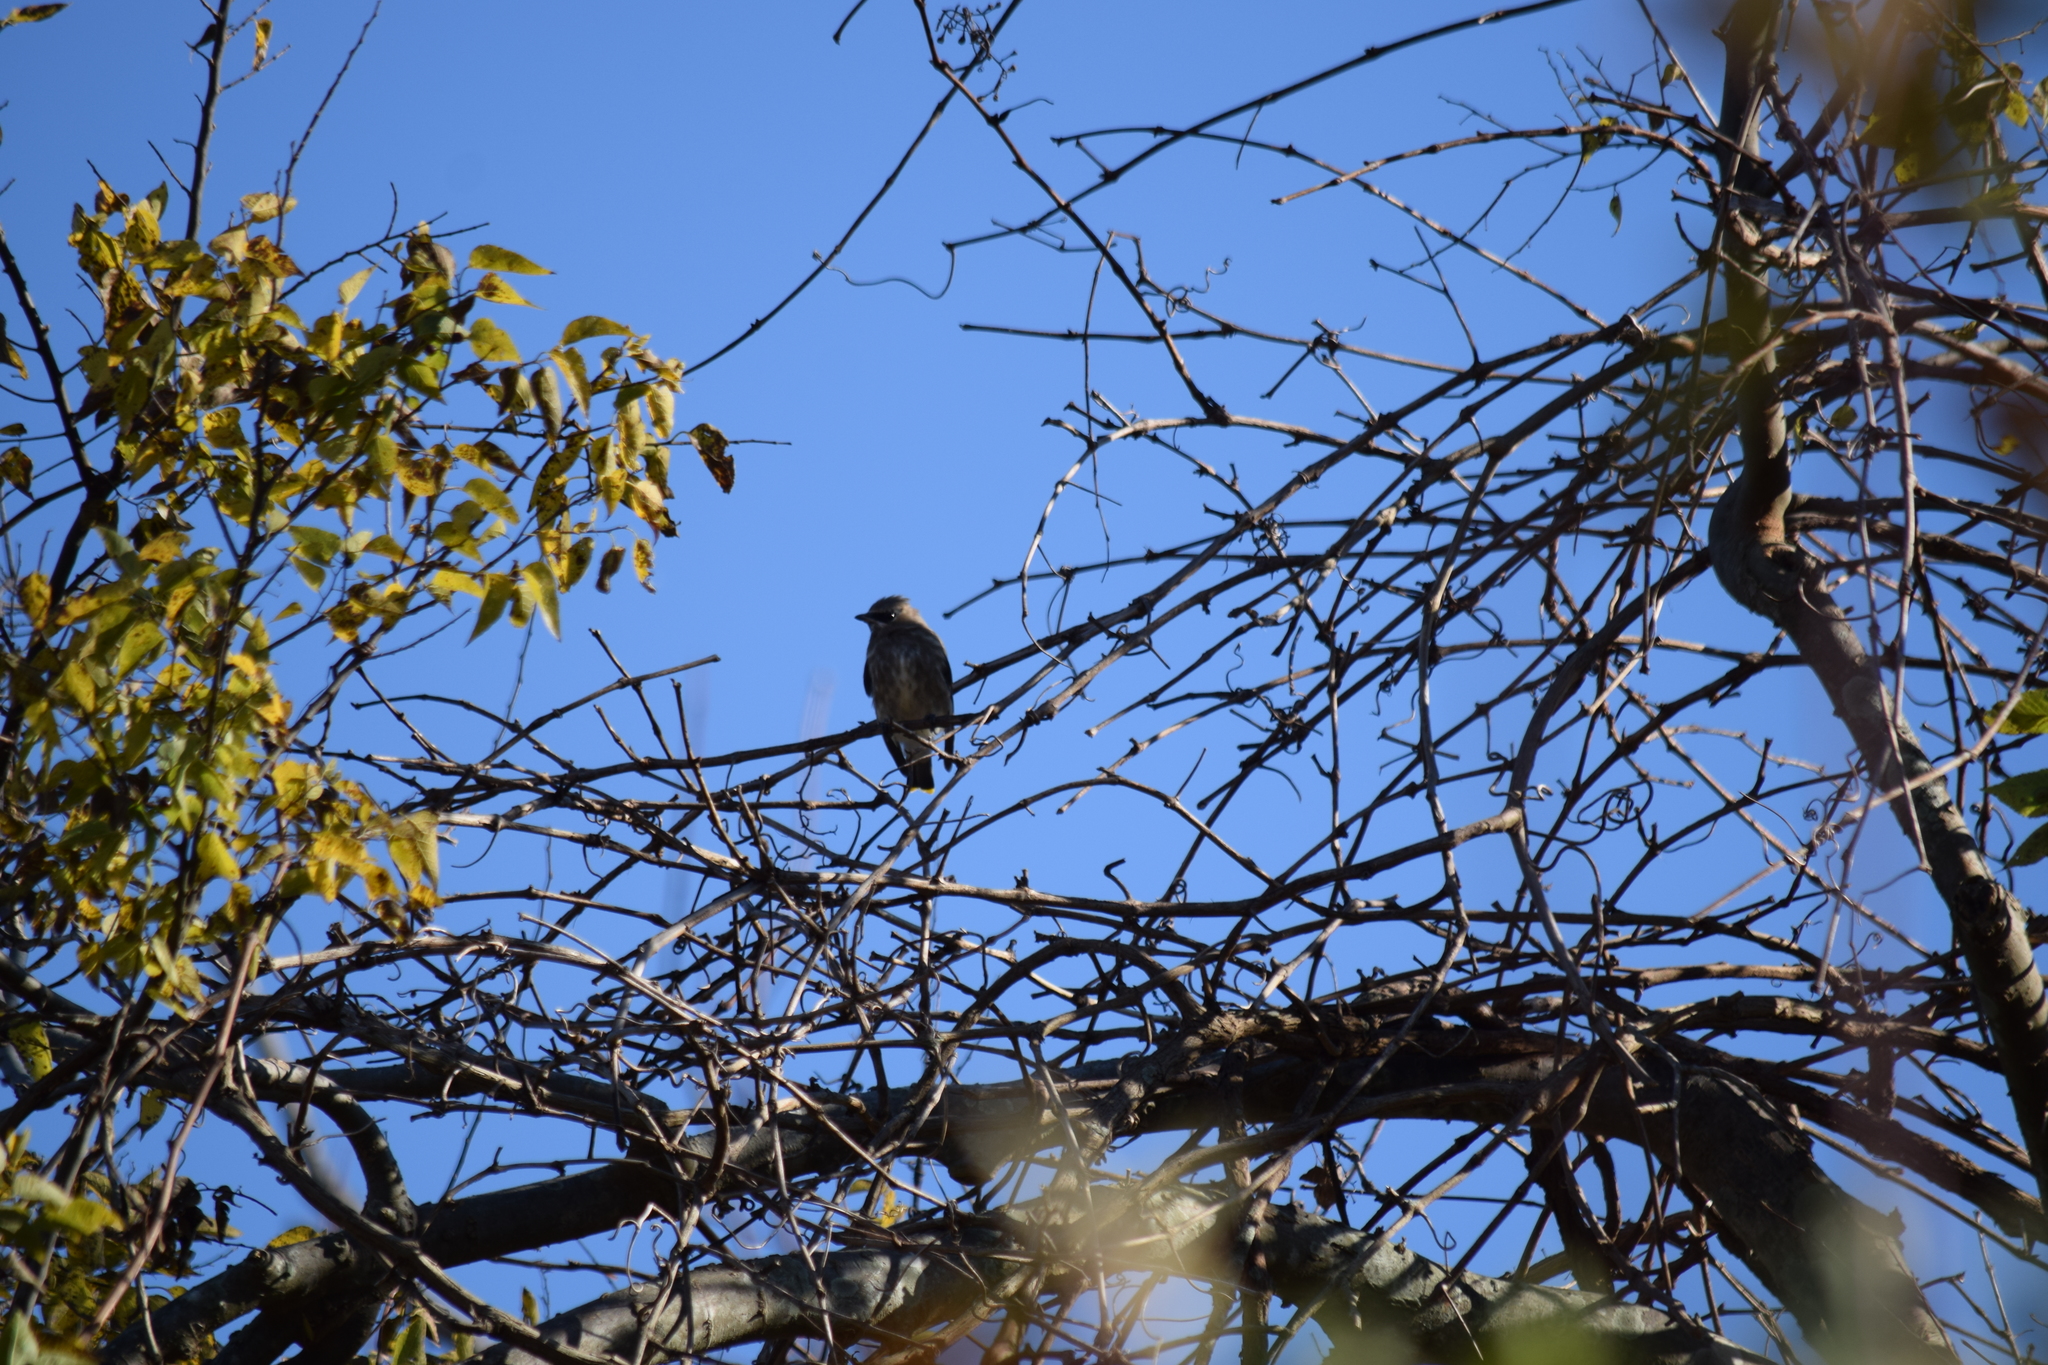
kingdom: Animalia
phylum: Chordata
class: Aves
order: Passeriformes
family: Bombycillidae
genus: Bombycilla
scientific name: Bombycilla cedrorum
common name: Cedar waxwing
